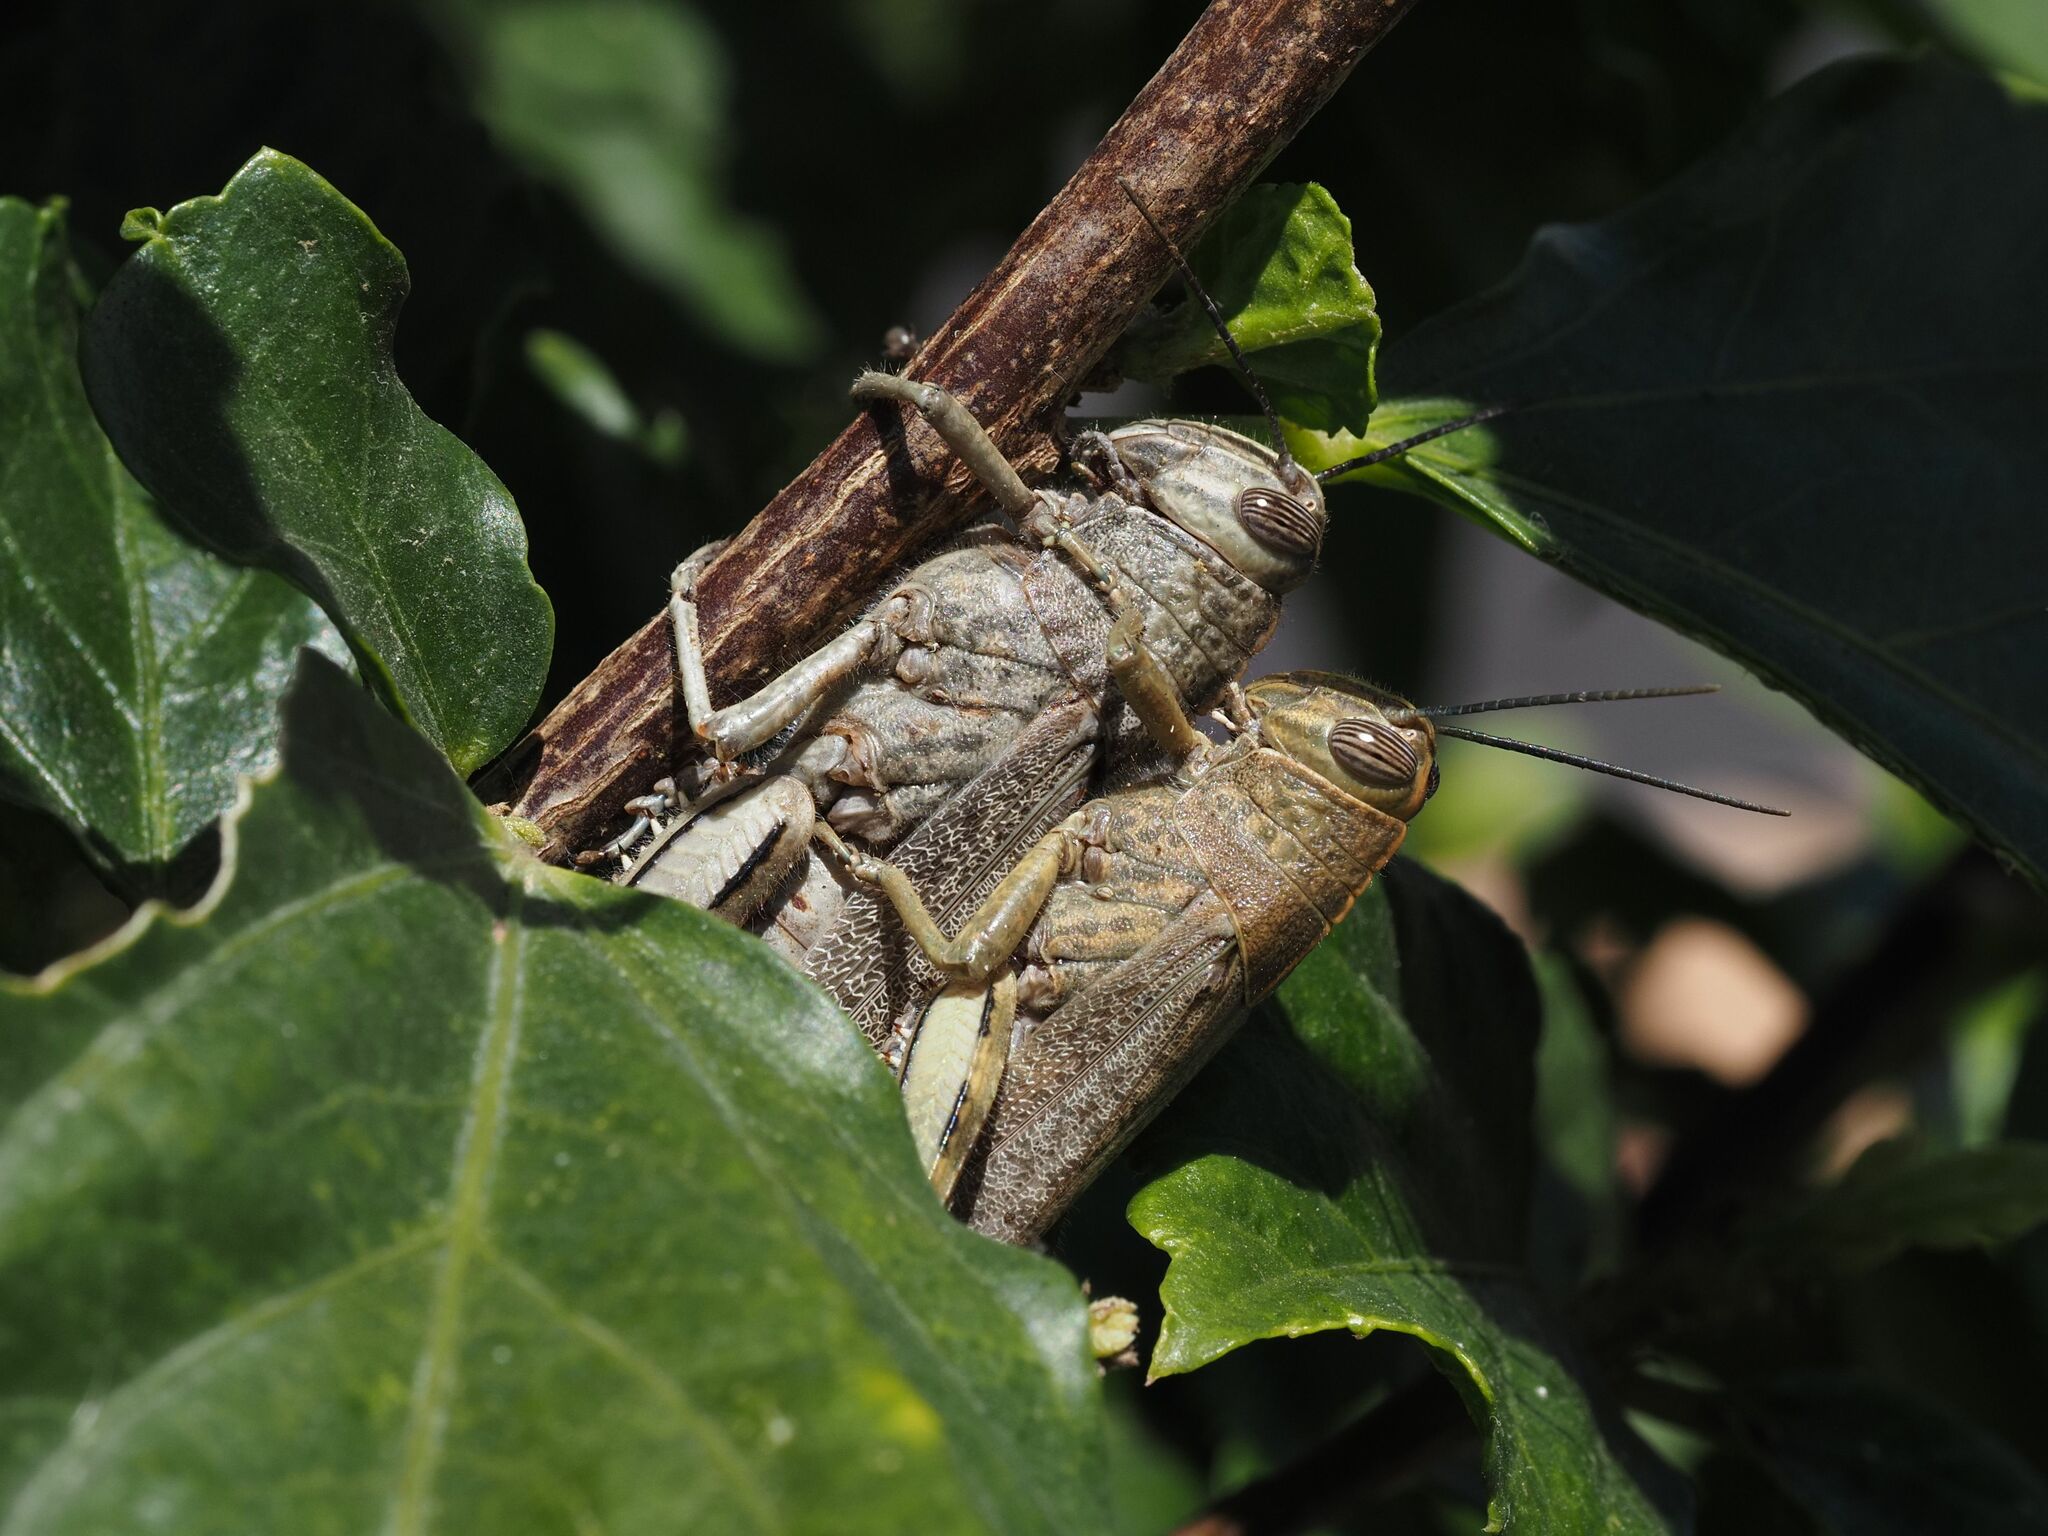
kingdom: Animalia
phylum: Arthropoda
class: Insecta
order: Orthoptera
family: Acrididae
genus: Anacridium
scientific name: Anacridium aegyptium
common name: Egyptian grasshopper
